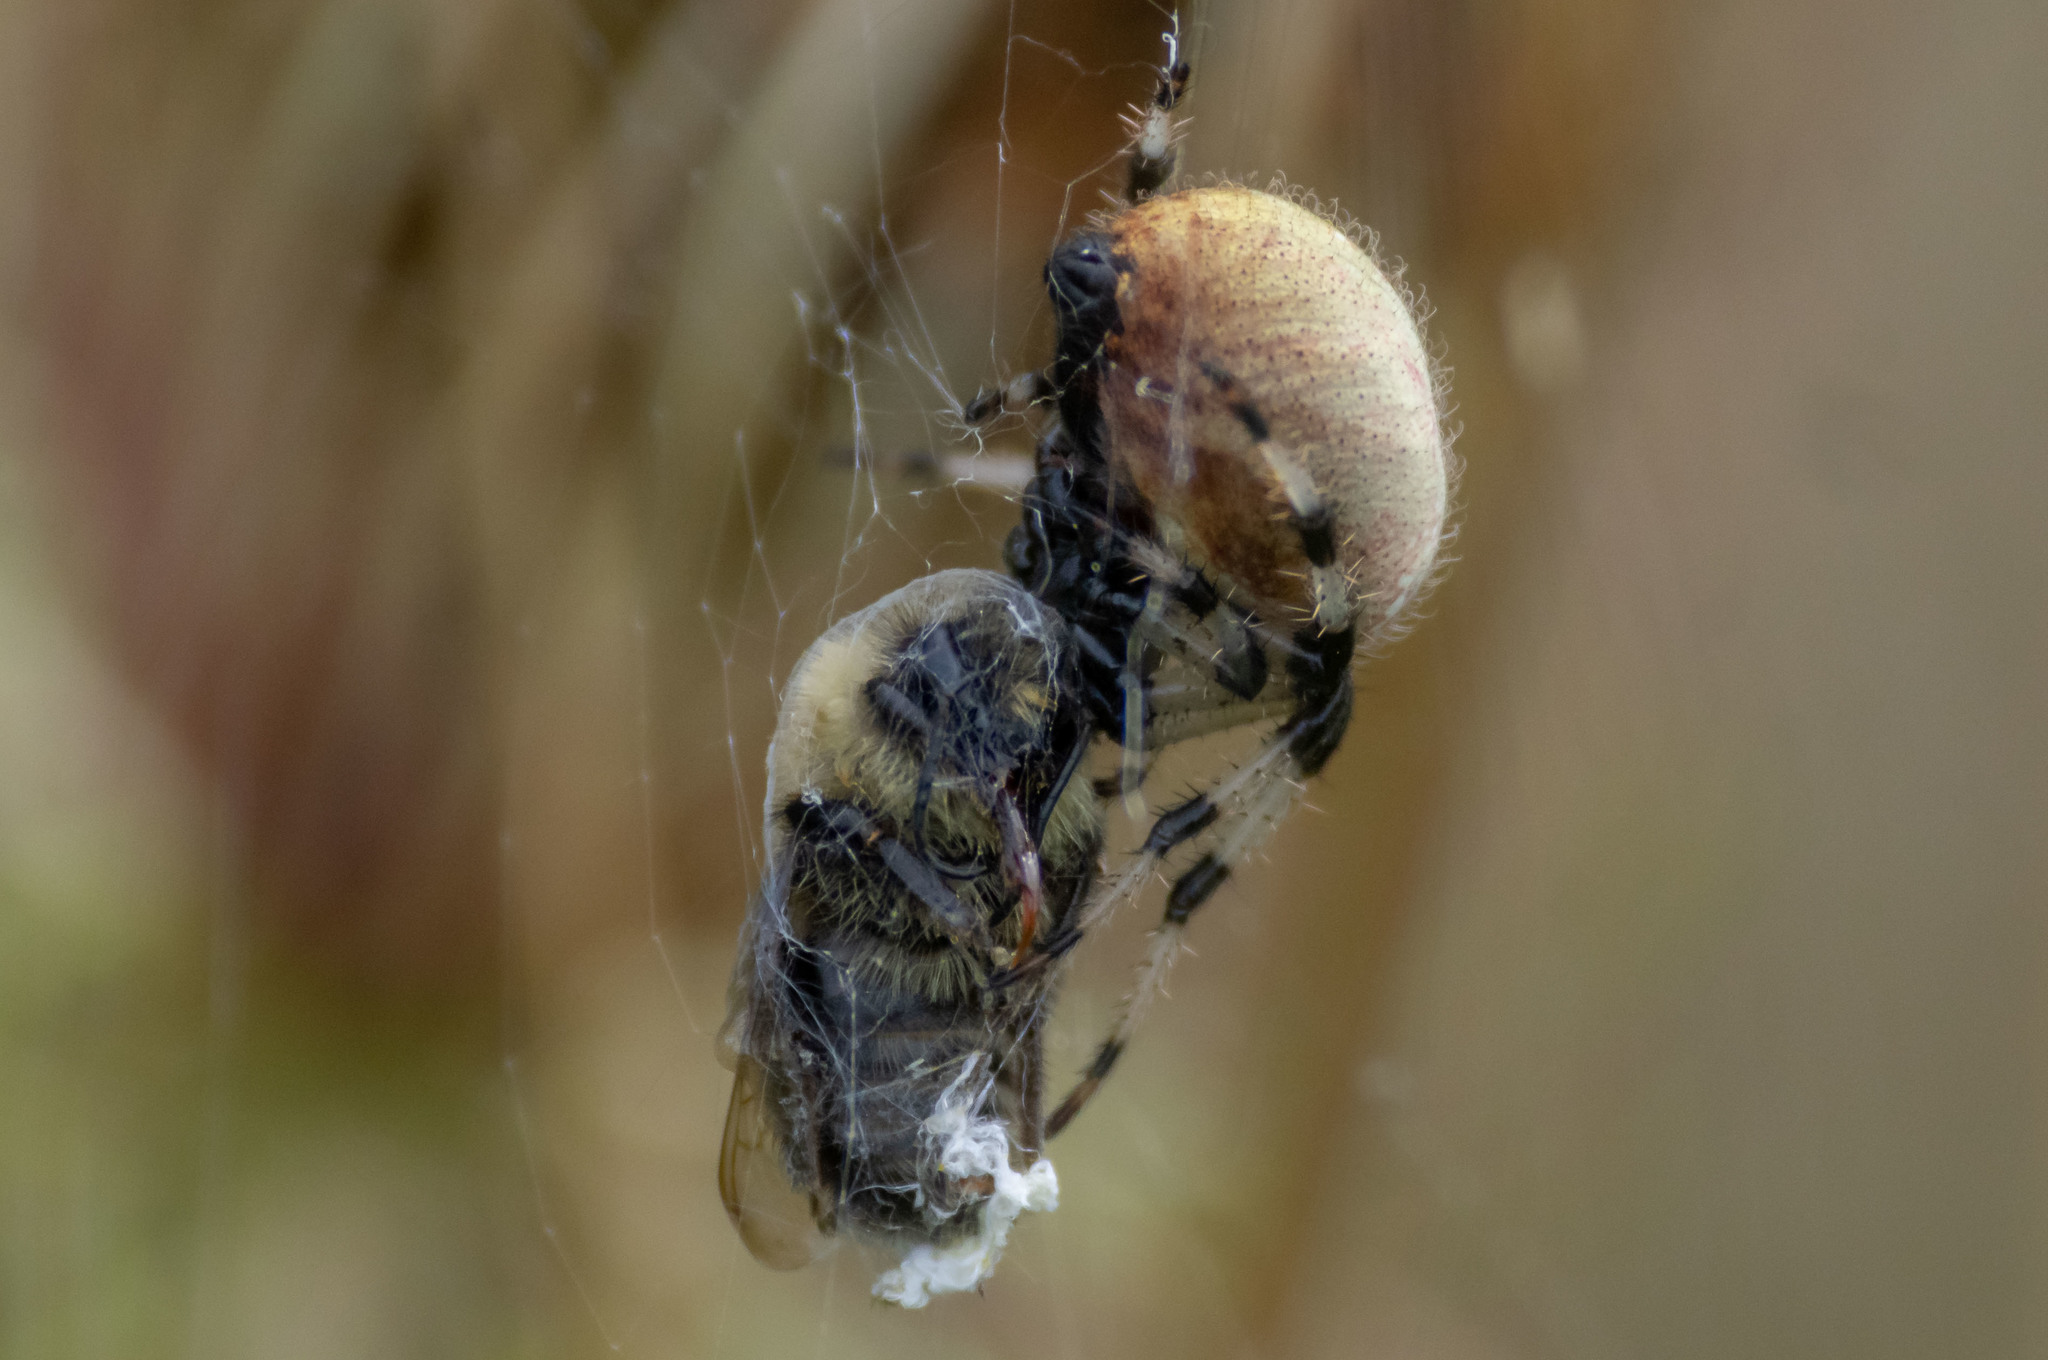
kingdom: Animalia
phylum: Arthropoda
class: Arachnida
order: Araneae
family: Araneidae
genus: Araneus
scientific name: Araneus trifolium
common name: Shamrock orbweaver
